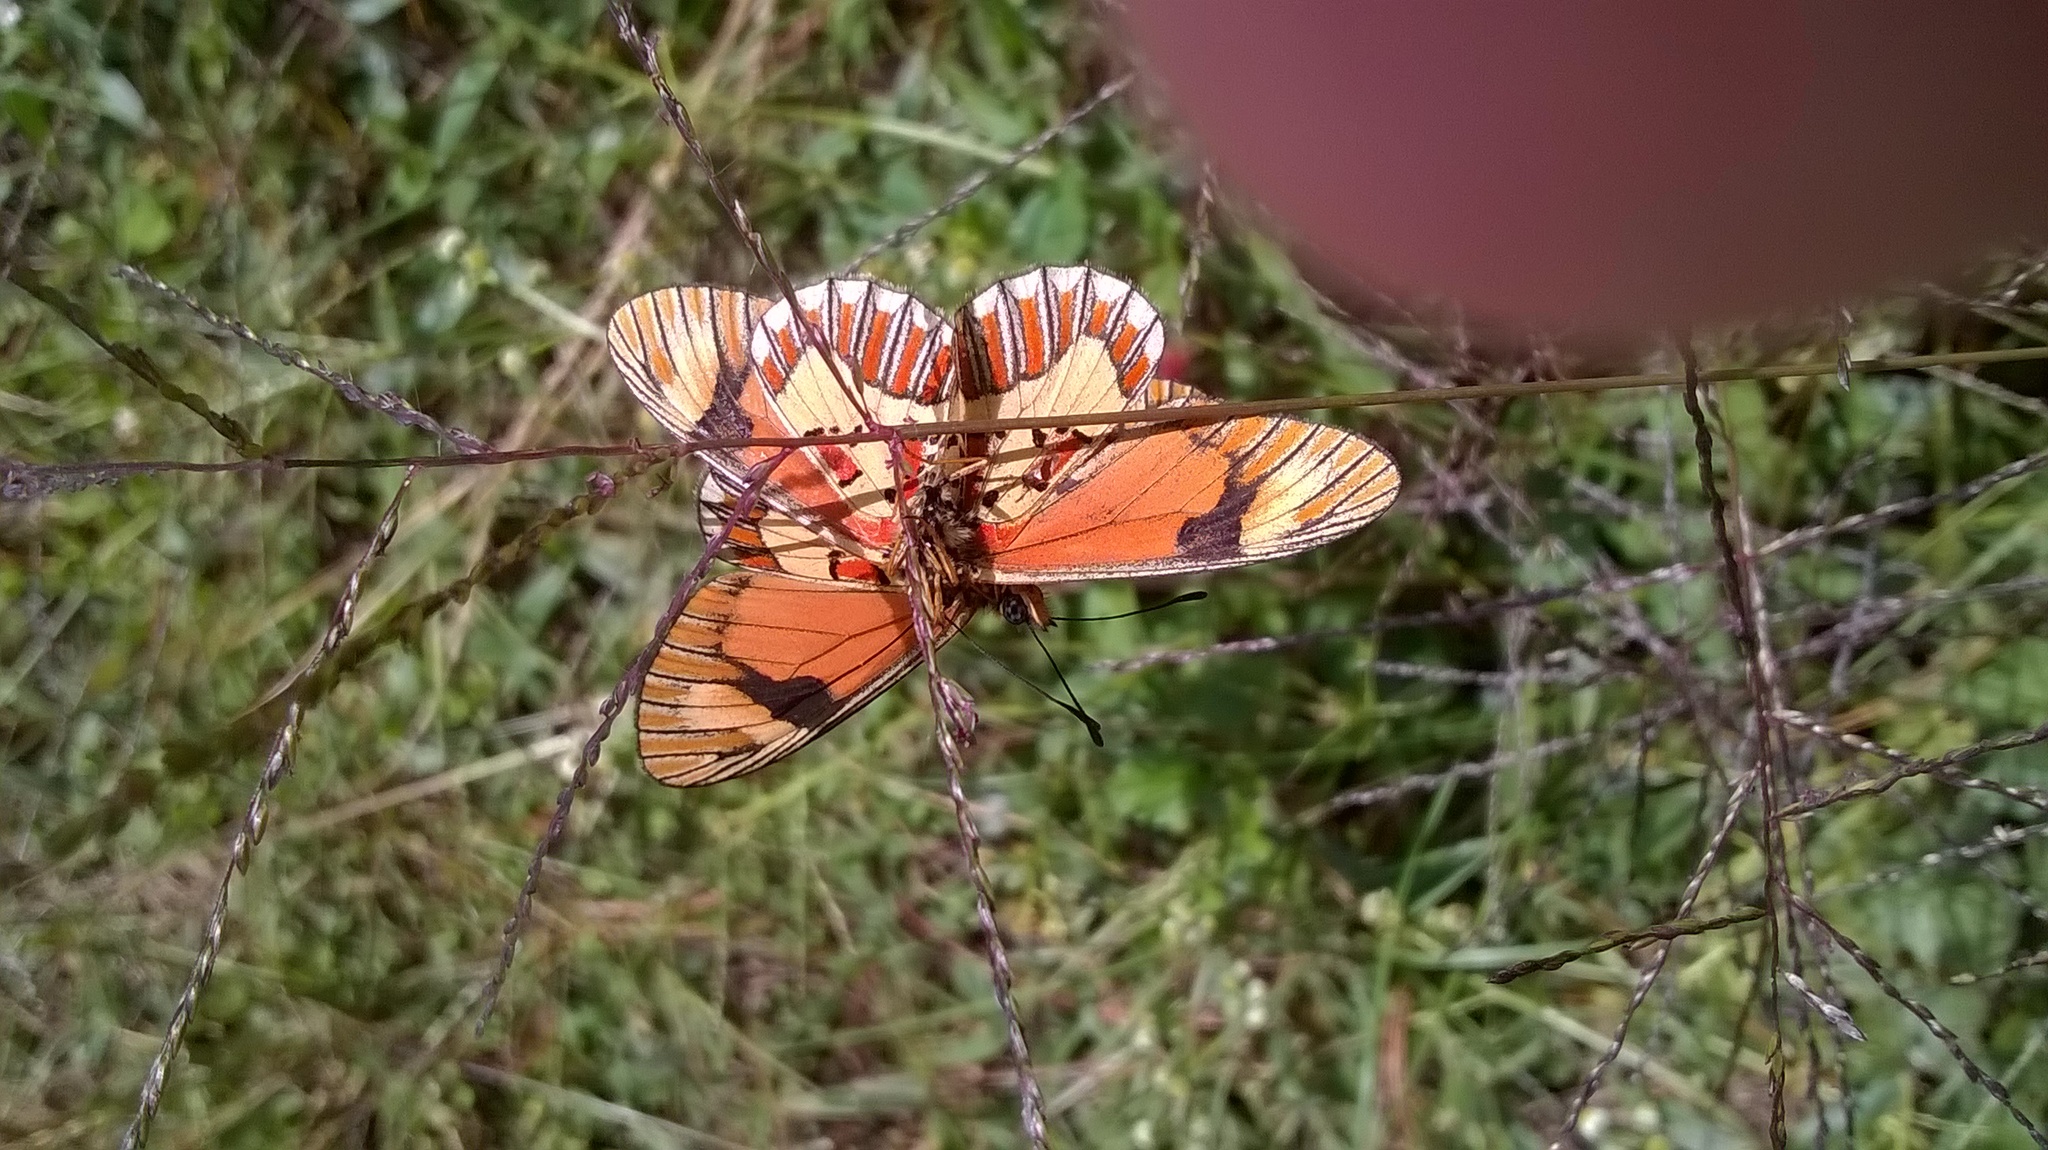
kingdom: Animalia
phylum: Arthropoda
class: Insecta
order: Lepidoptera
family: Nymphalidae
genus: Acraea
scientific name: Acraea
